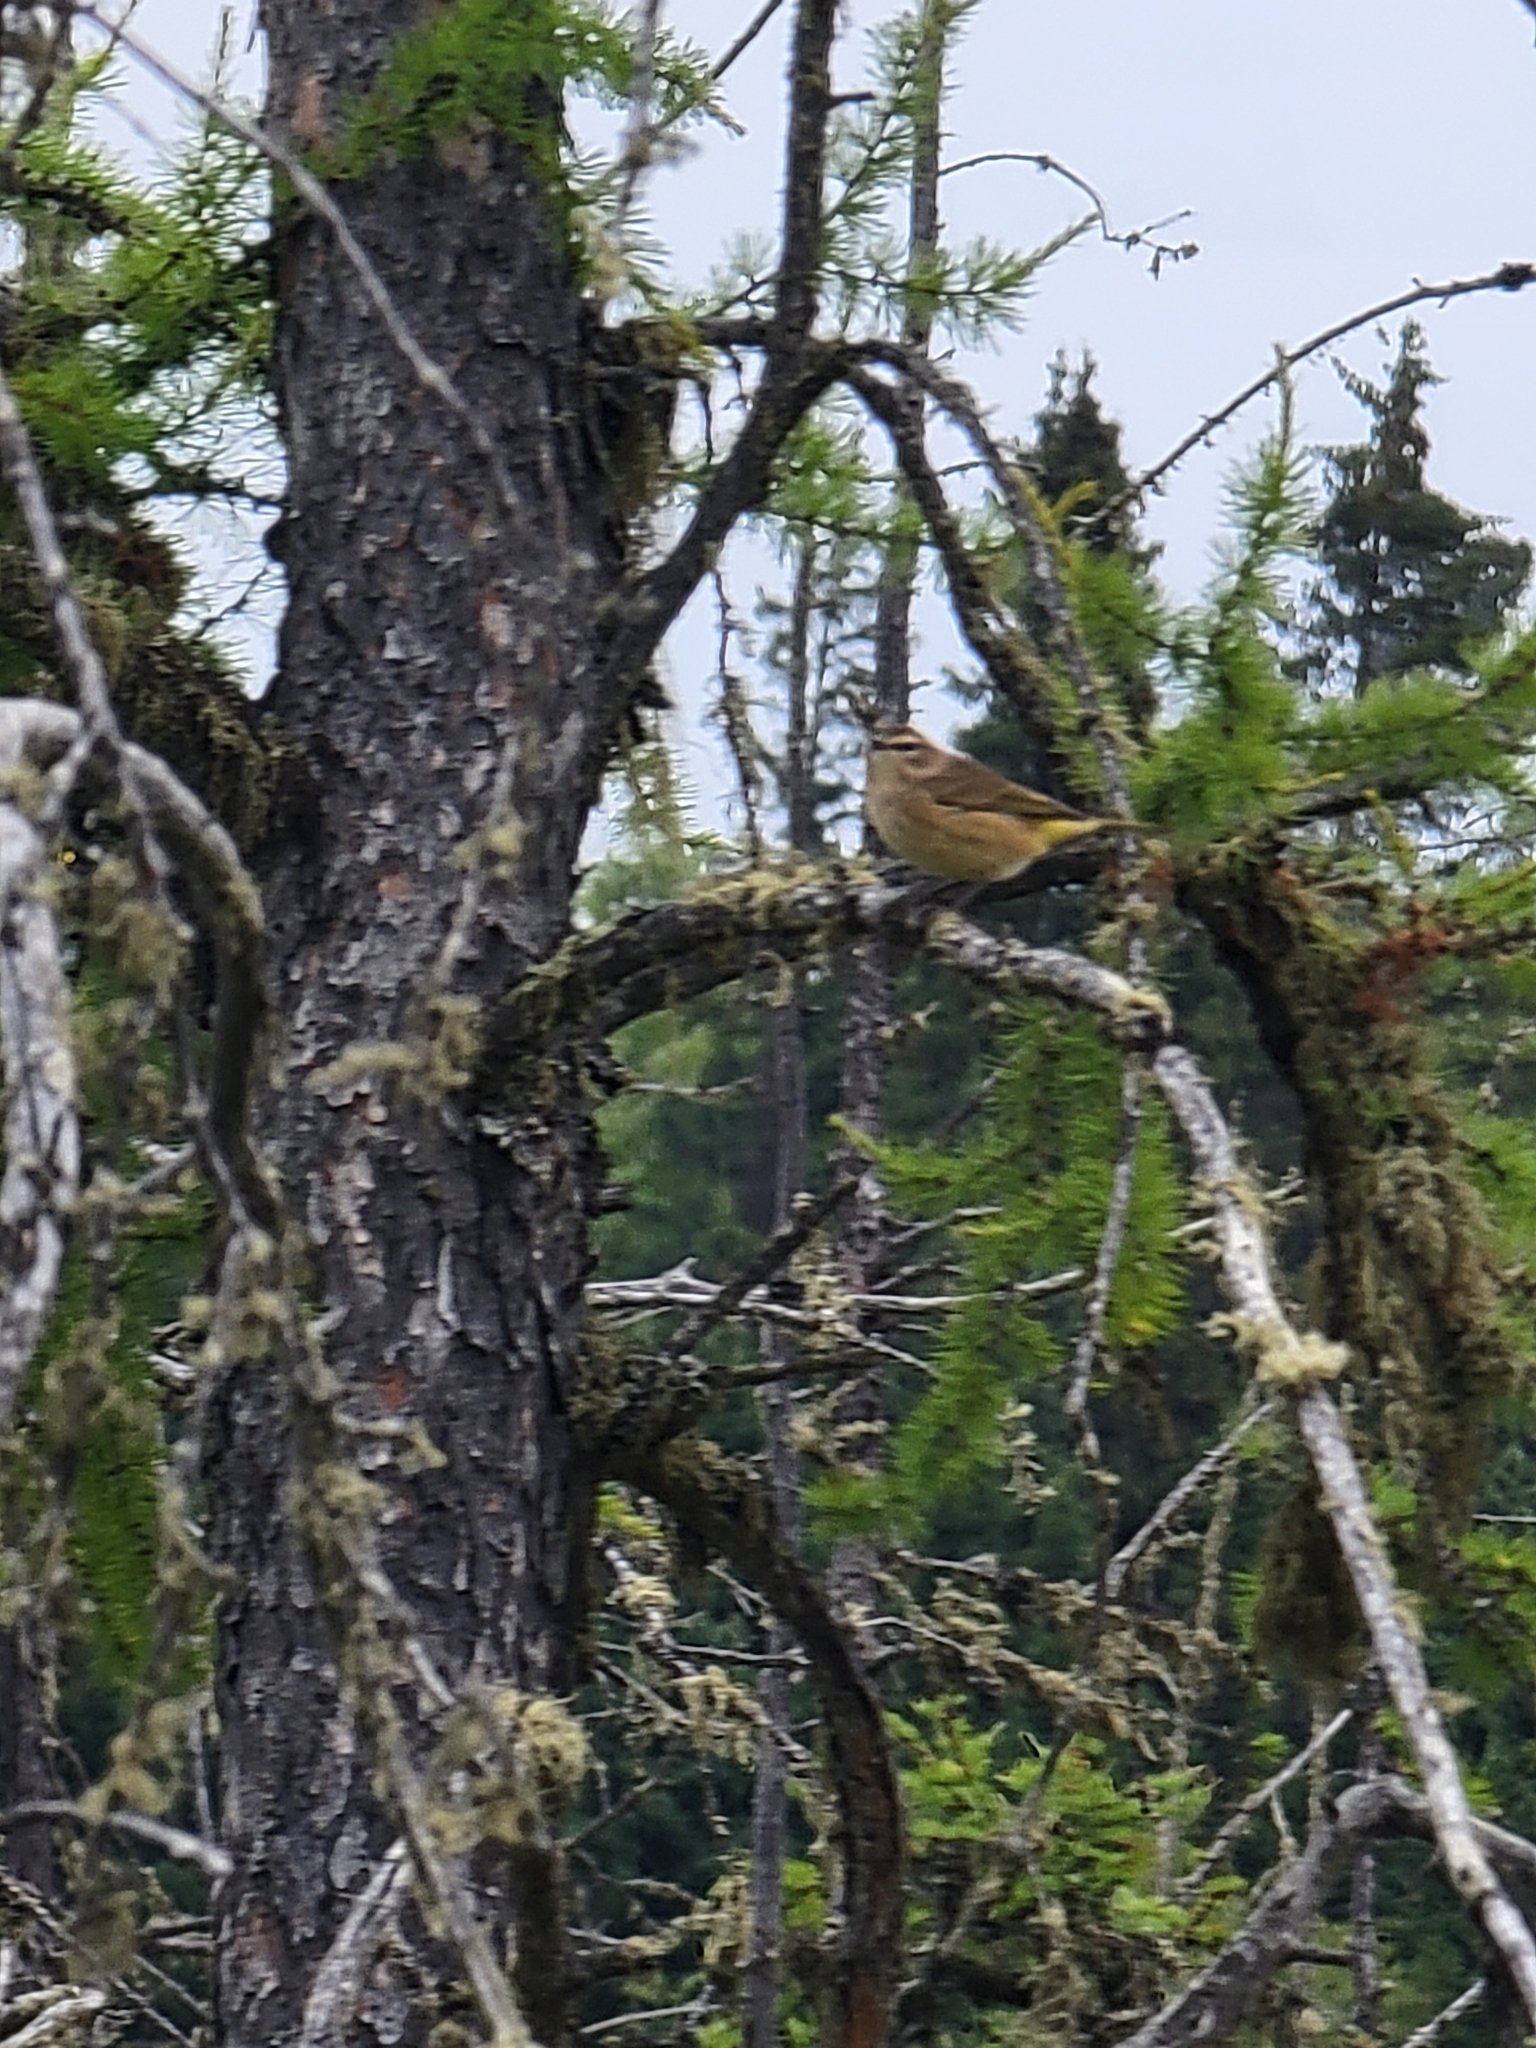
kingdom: Animalia
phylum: Chordata
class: Aves
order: Passeriformes
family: Parulidae
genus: Setophaga
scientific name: Setophaga palmarum
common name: Palm warbler
